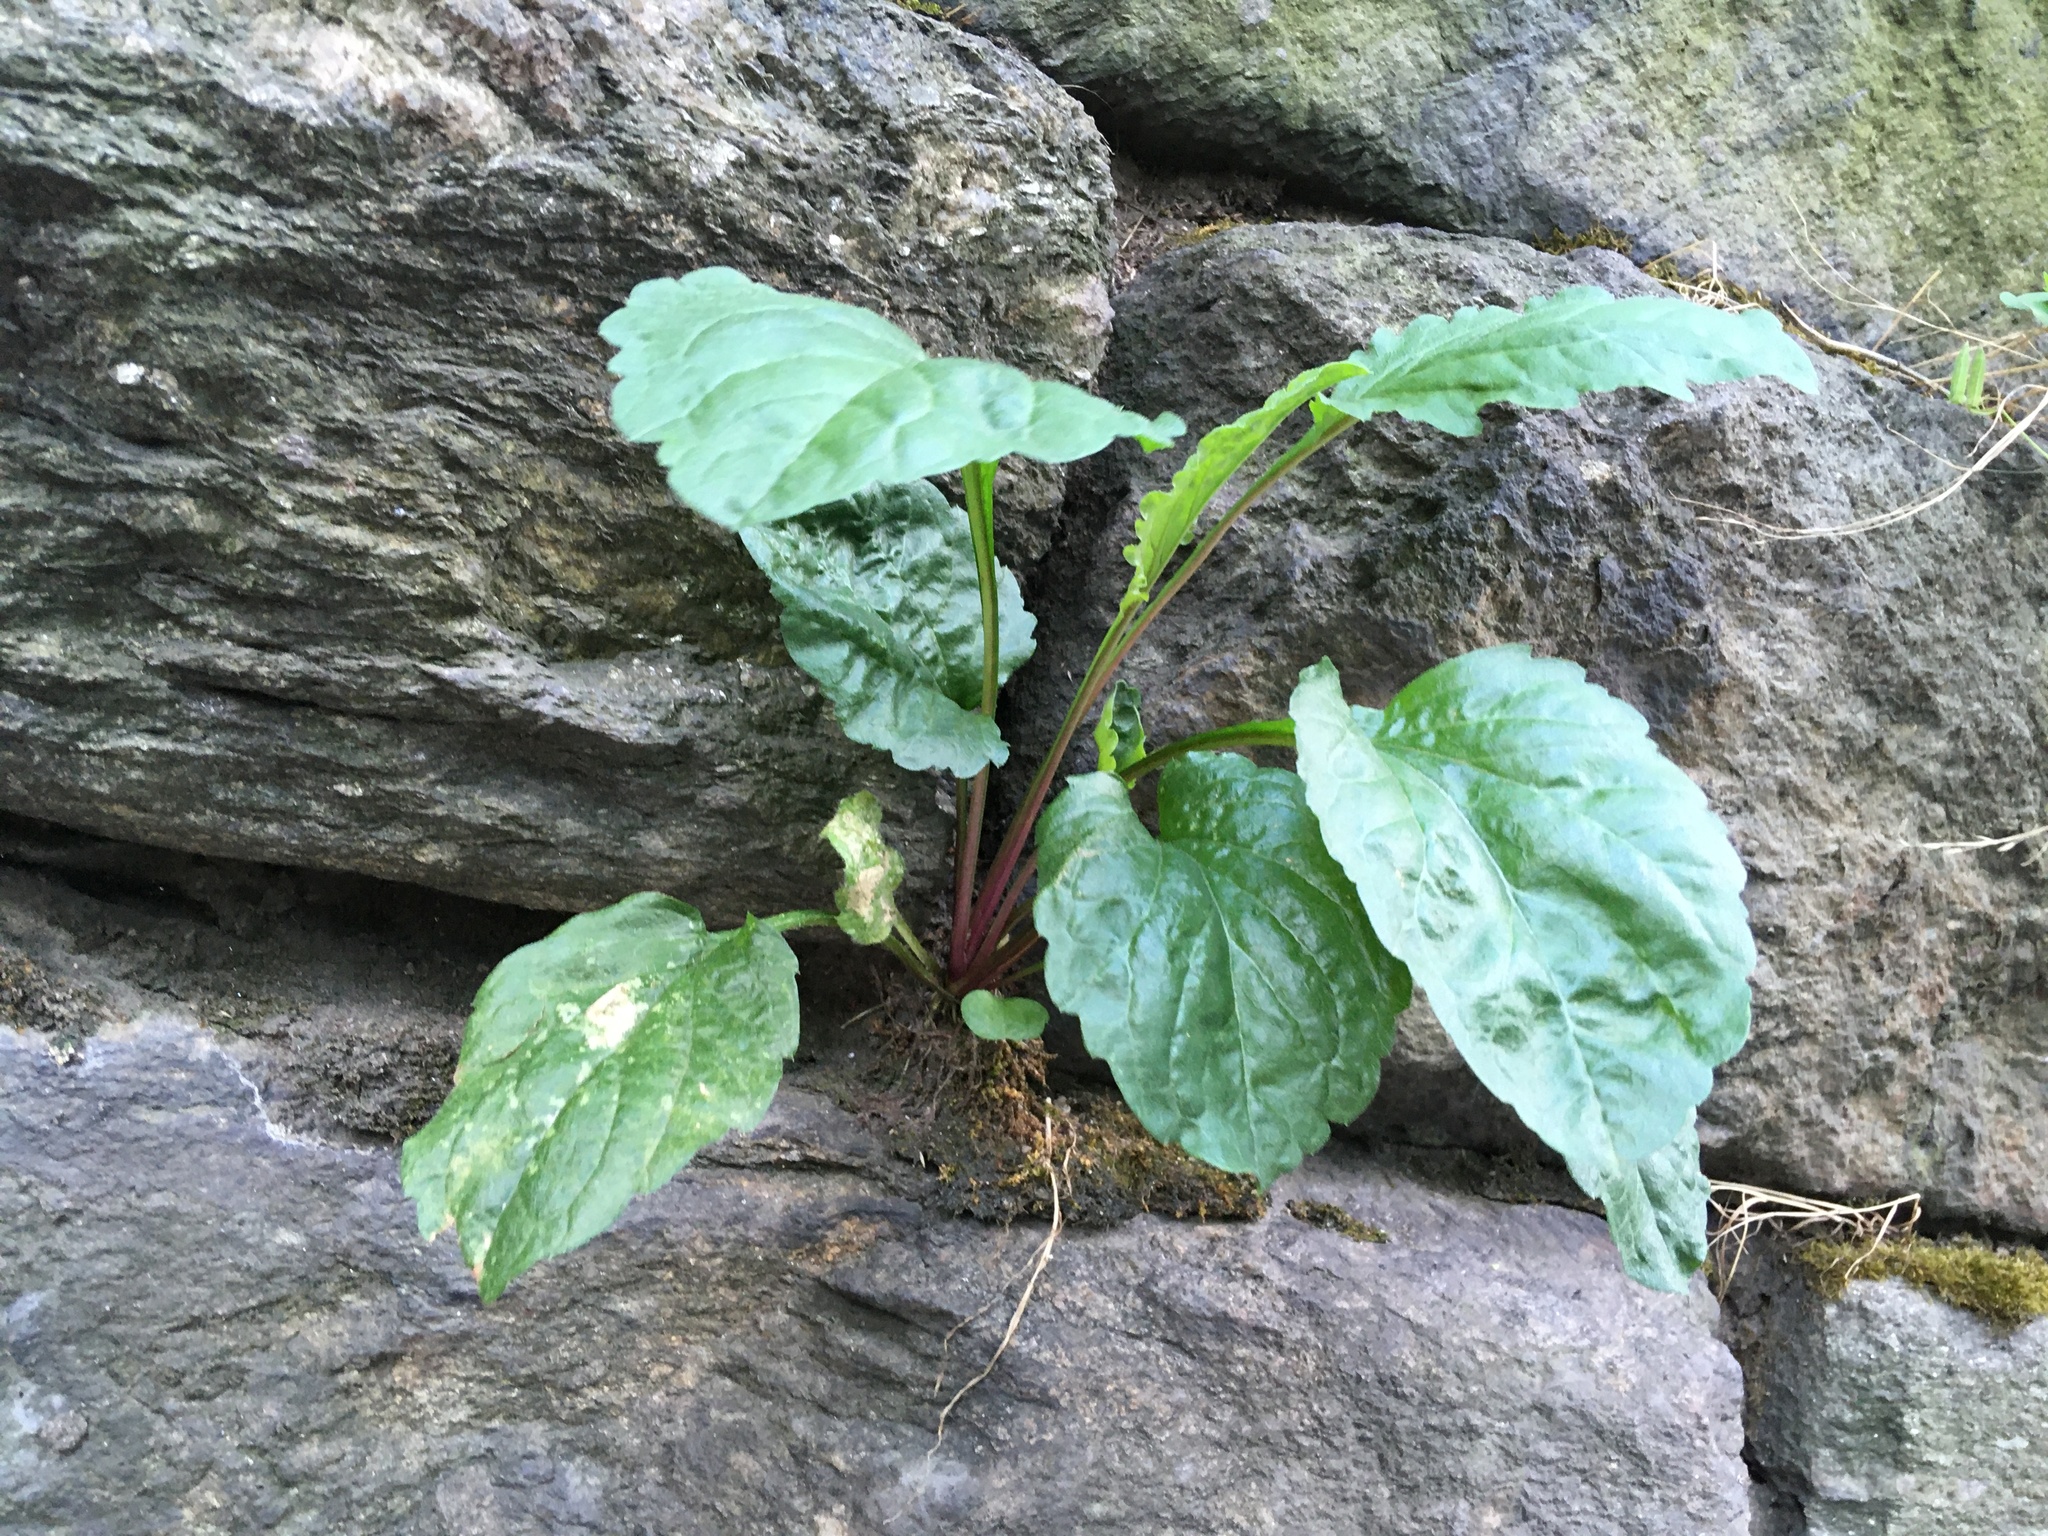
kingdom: Plantae
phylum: Tracheophyta
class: Magnoliopsida
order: Asterales
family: Asteraceae
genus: Erigeron
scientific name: Erigeron annuus
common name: Tall fleabane
